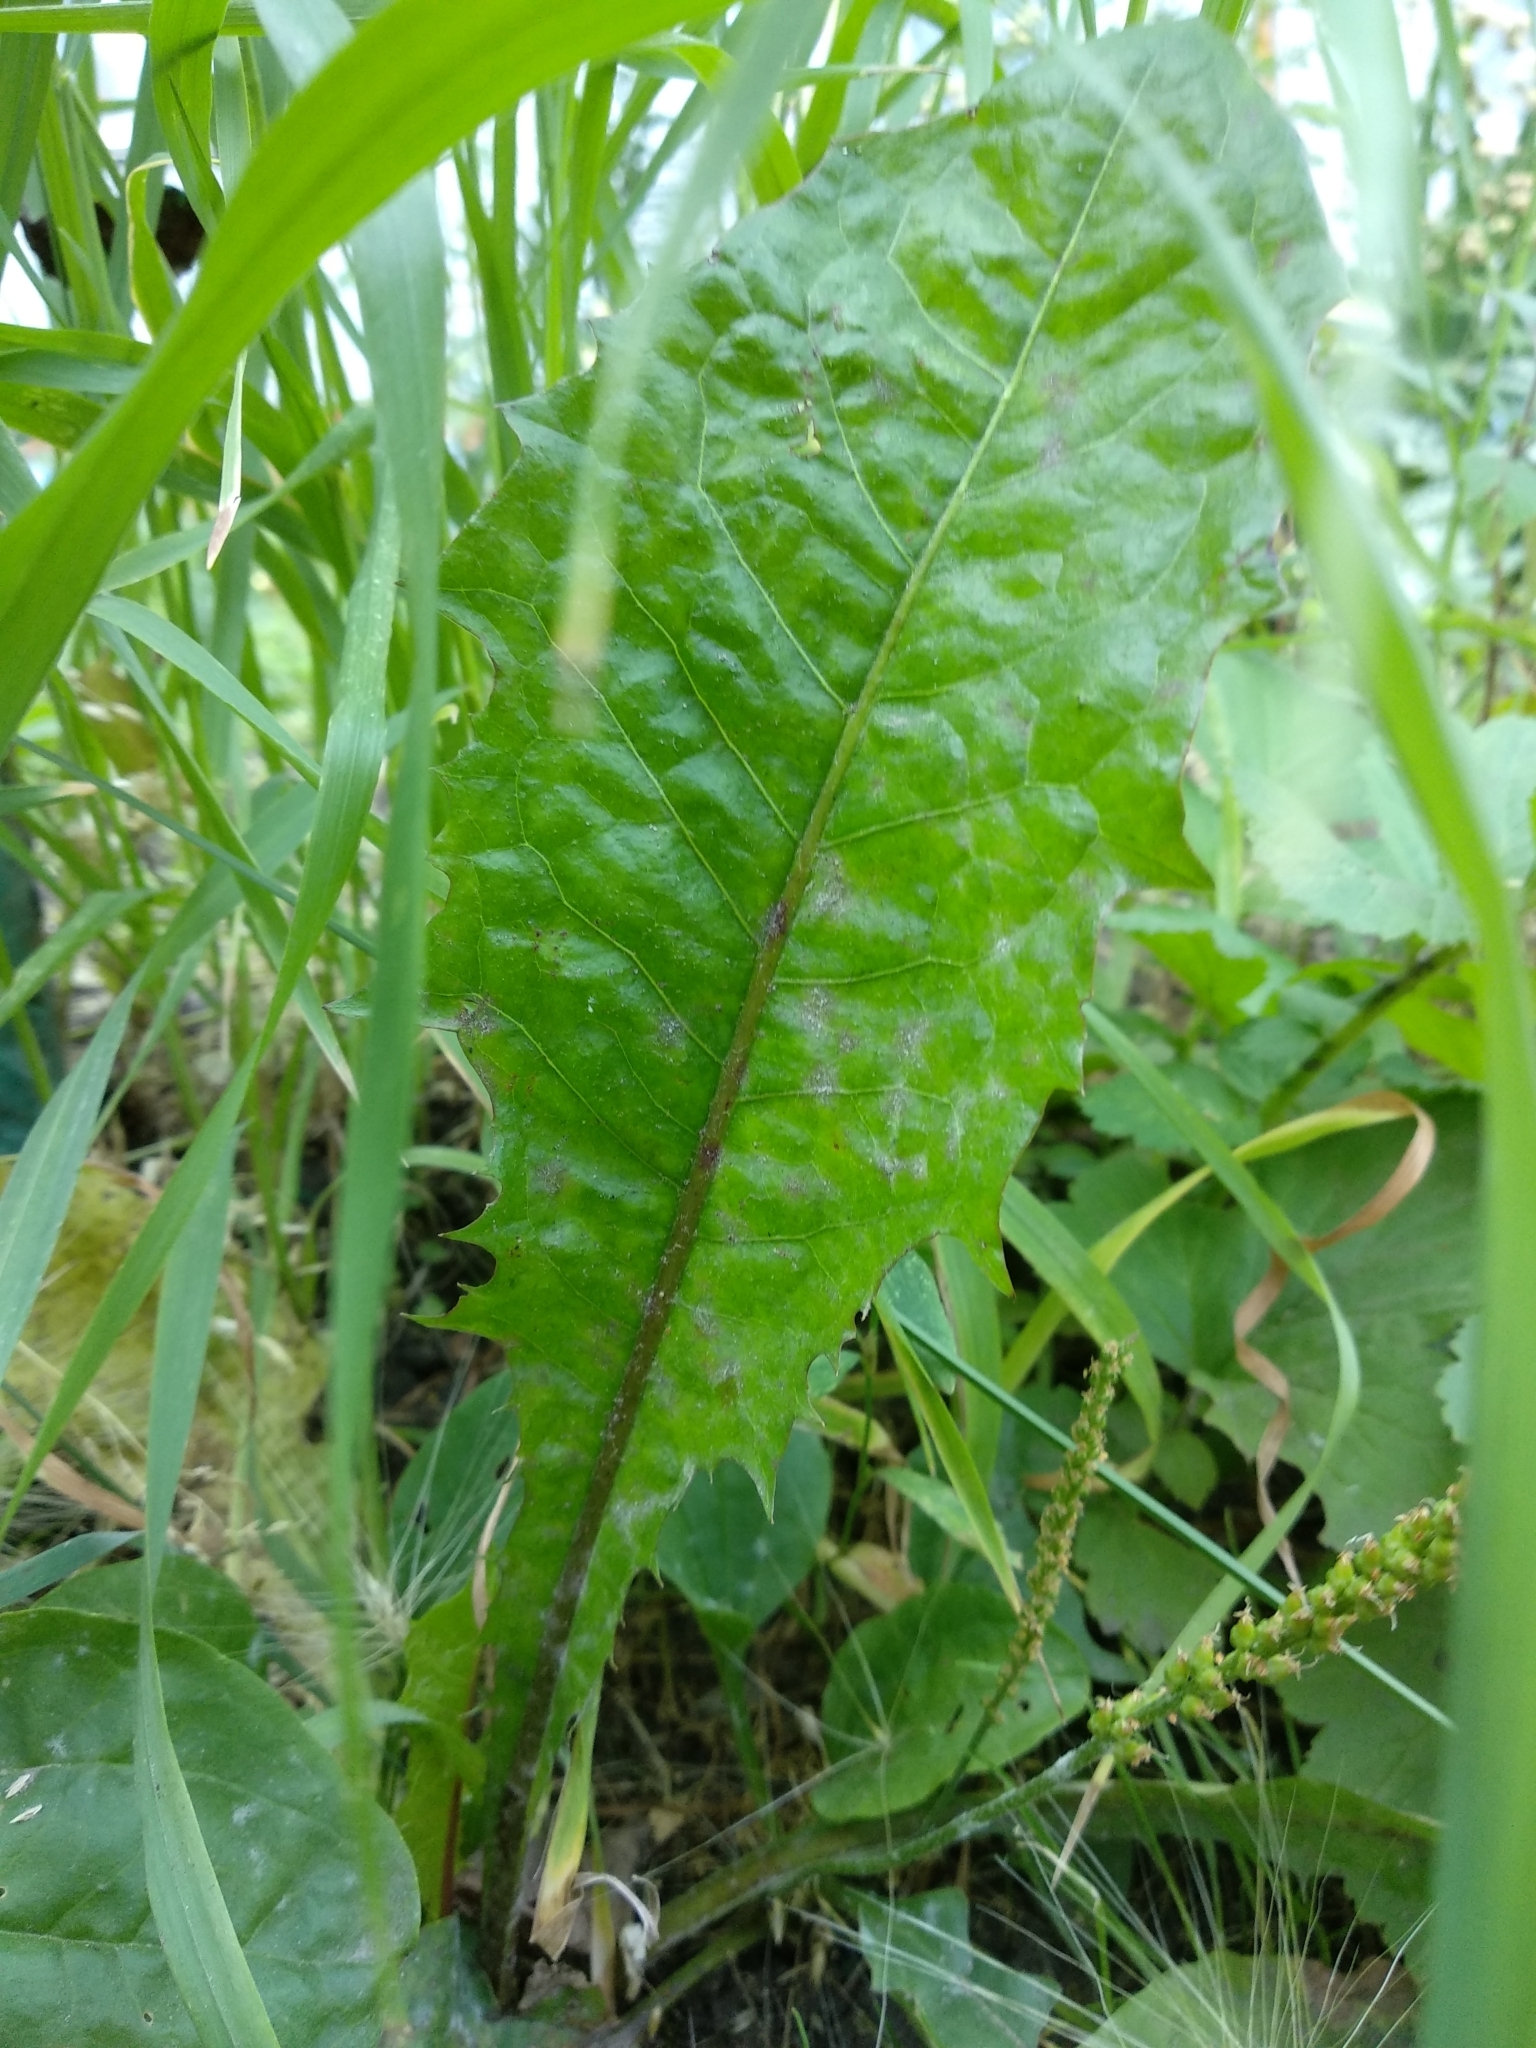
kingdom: Plantae
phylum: Tracheophyta
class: Magnoliopsida
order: Asterales
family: Asteraceae
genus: Taraxacum
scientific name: Taraxacum officinale
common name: Common dandelion
